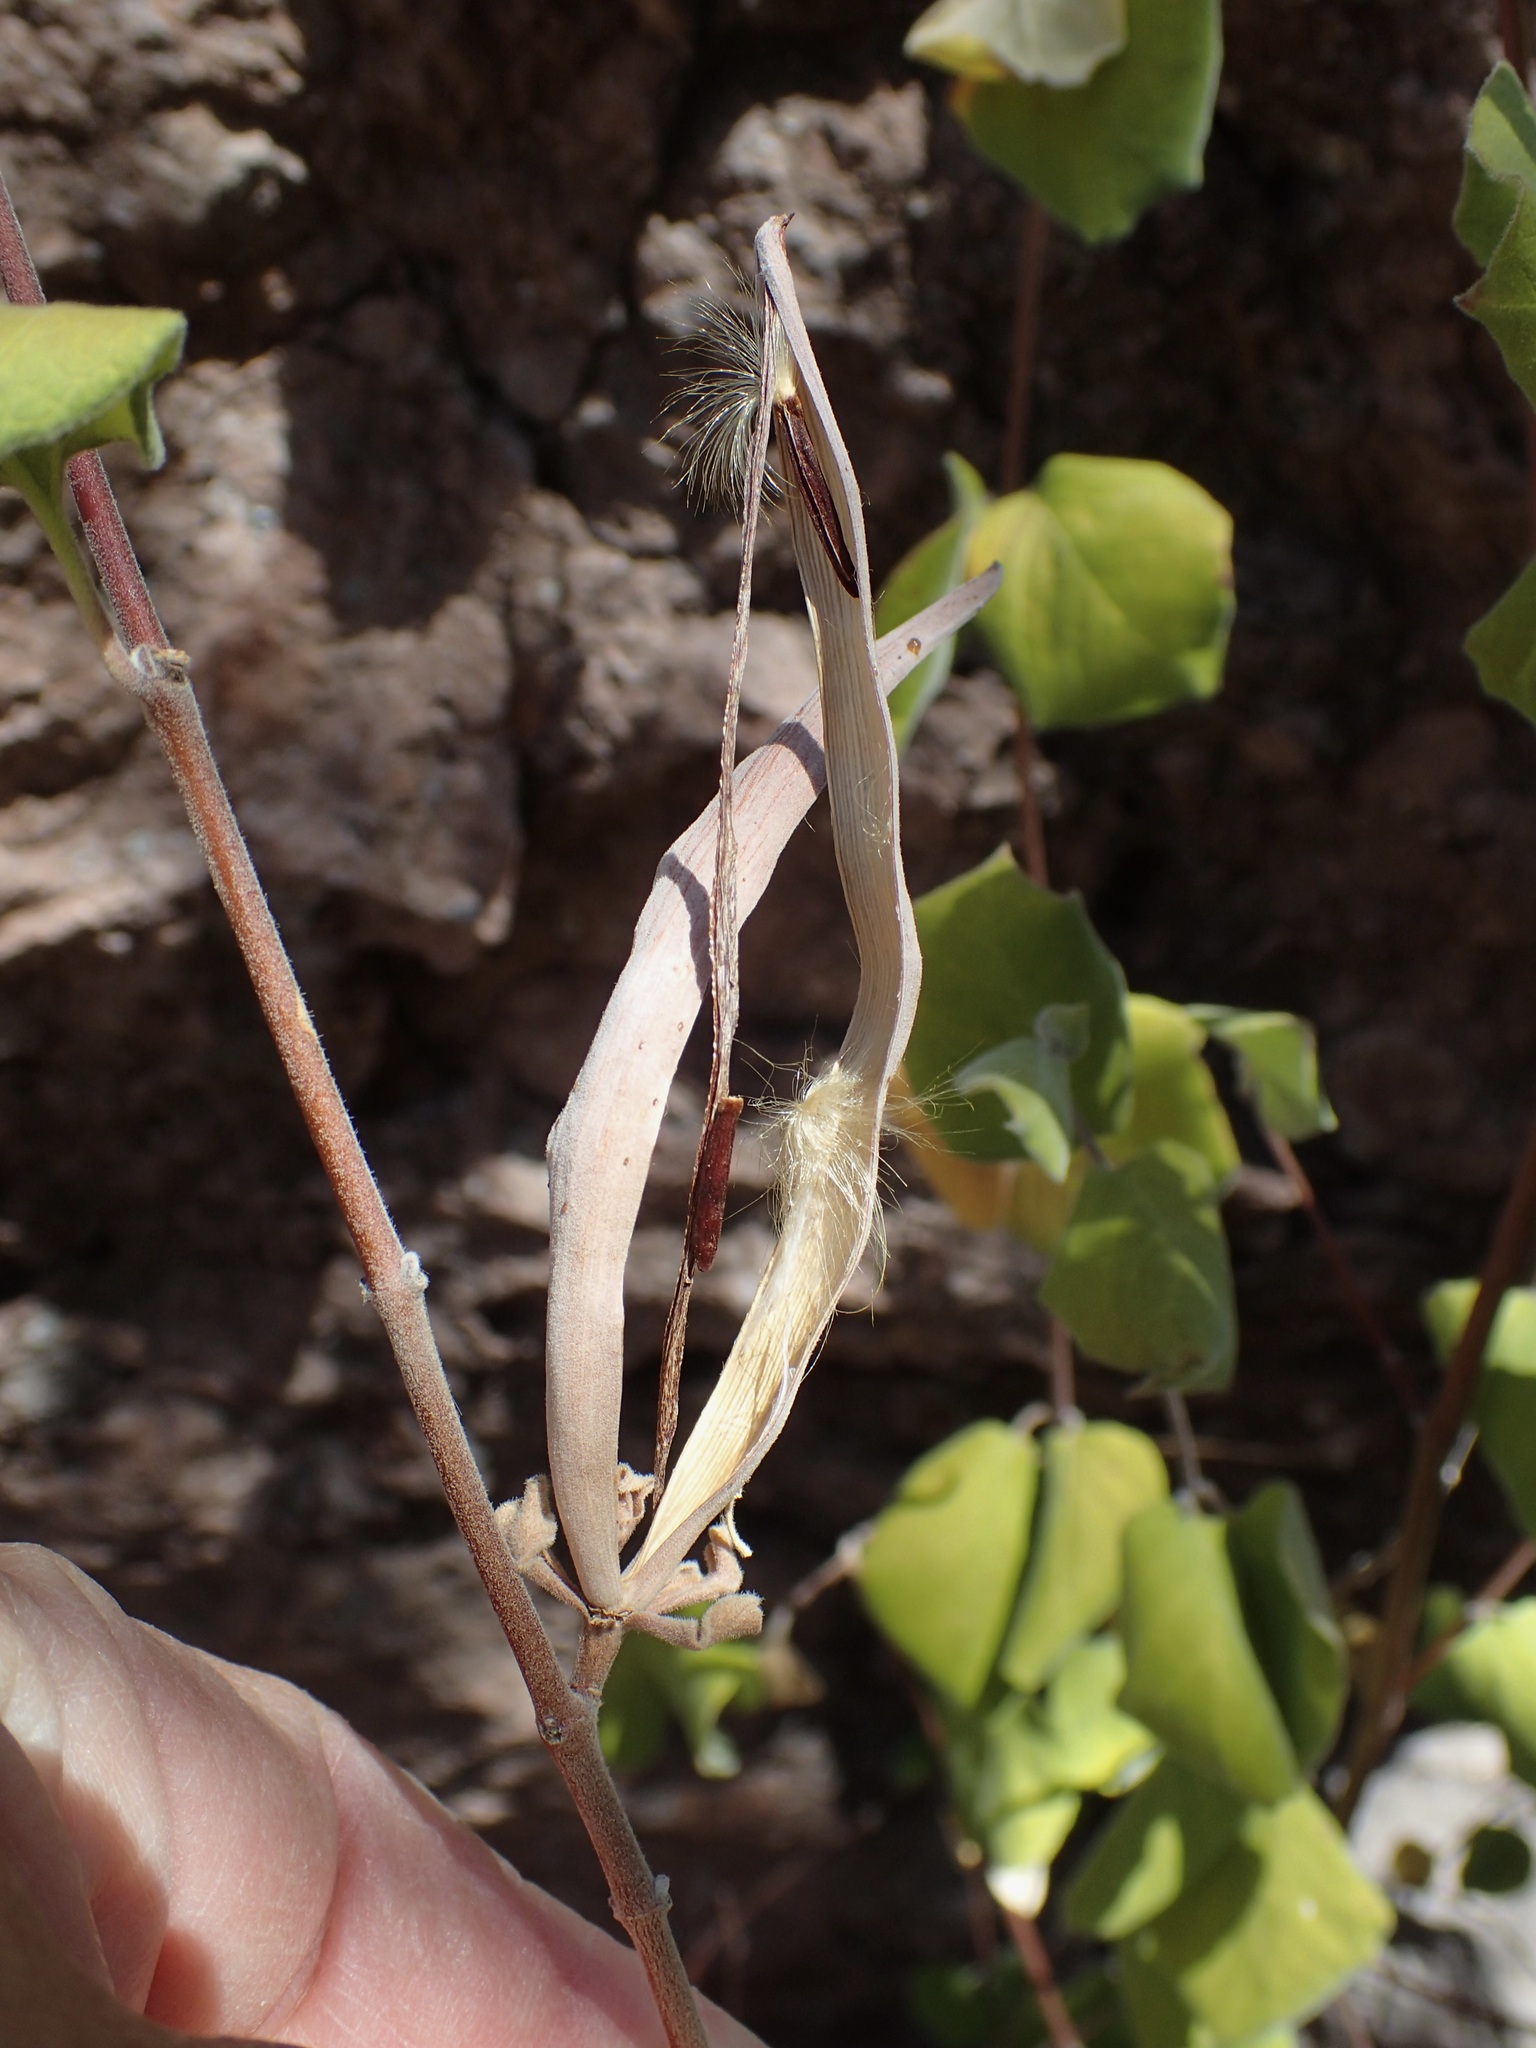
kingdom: Plantae
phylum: Tracheophyta
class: Magnoliopsida
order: Gentianales
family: Apocynaceae
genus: Mandevilla
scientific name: Mandevilla hesperia
